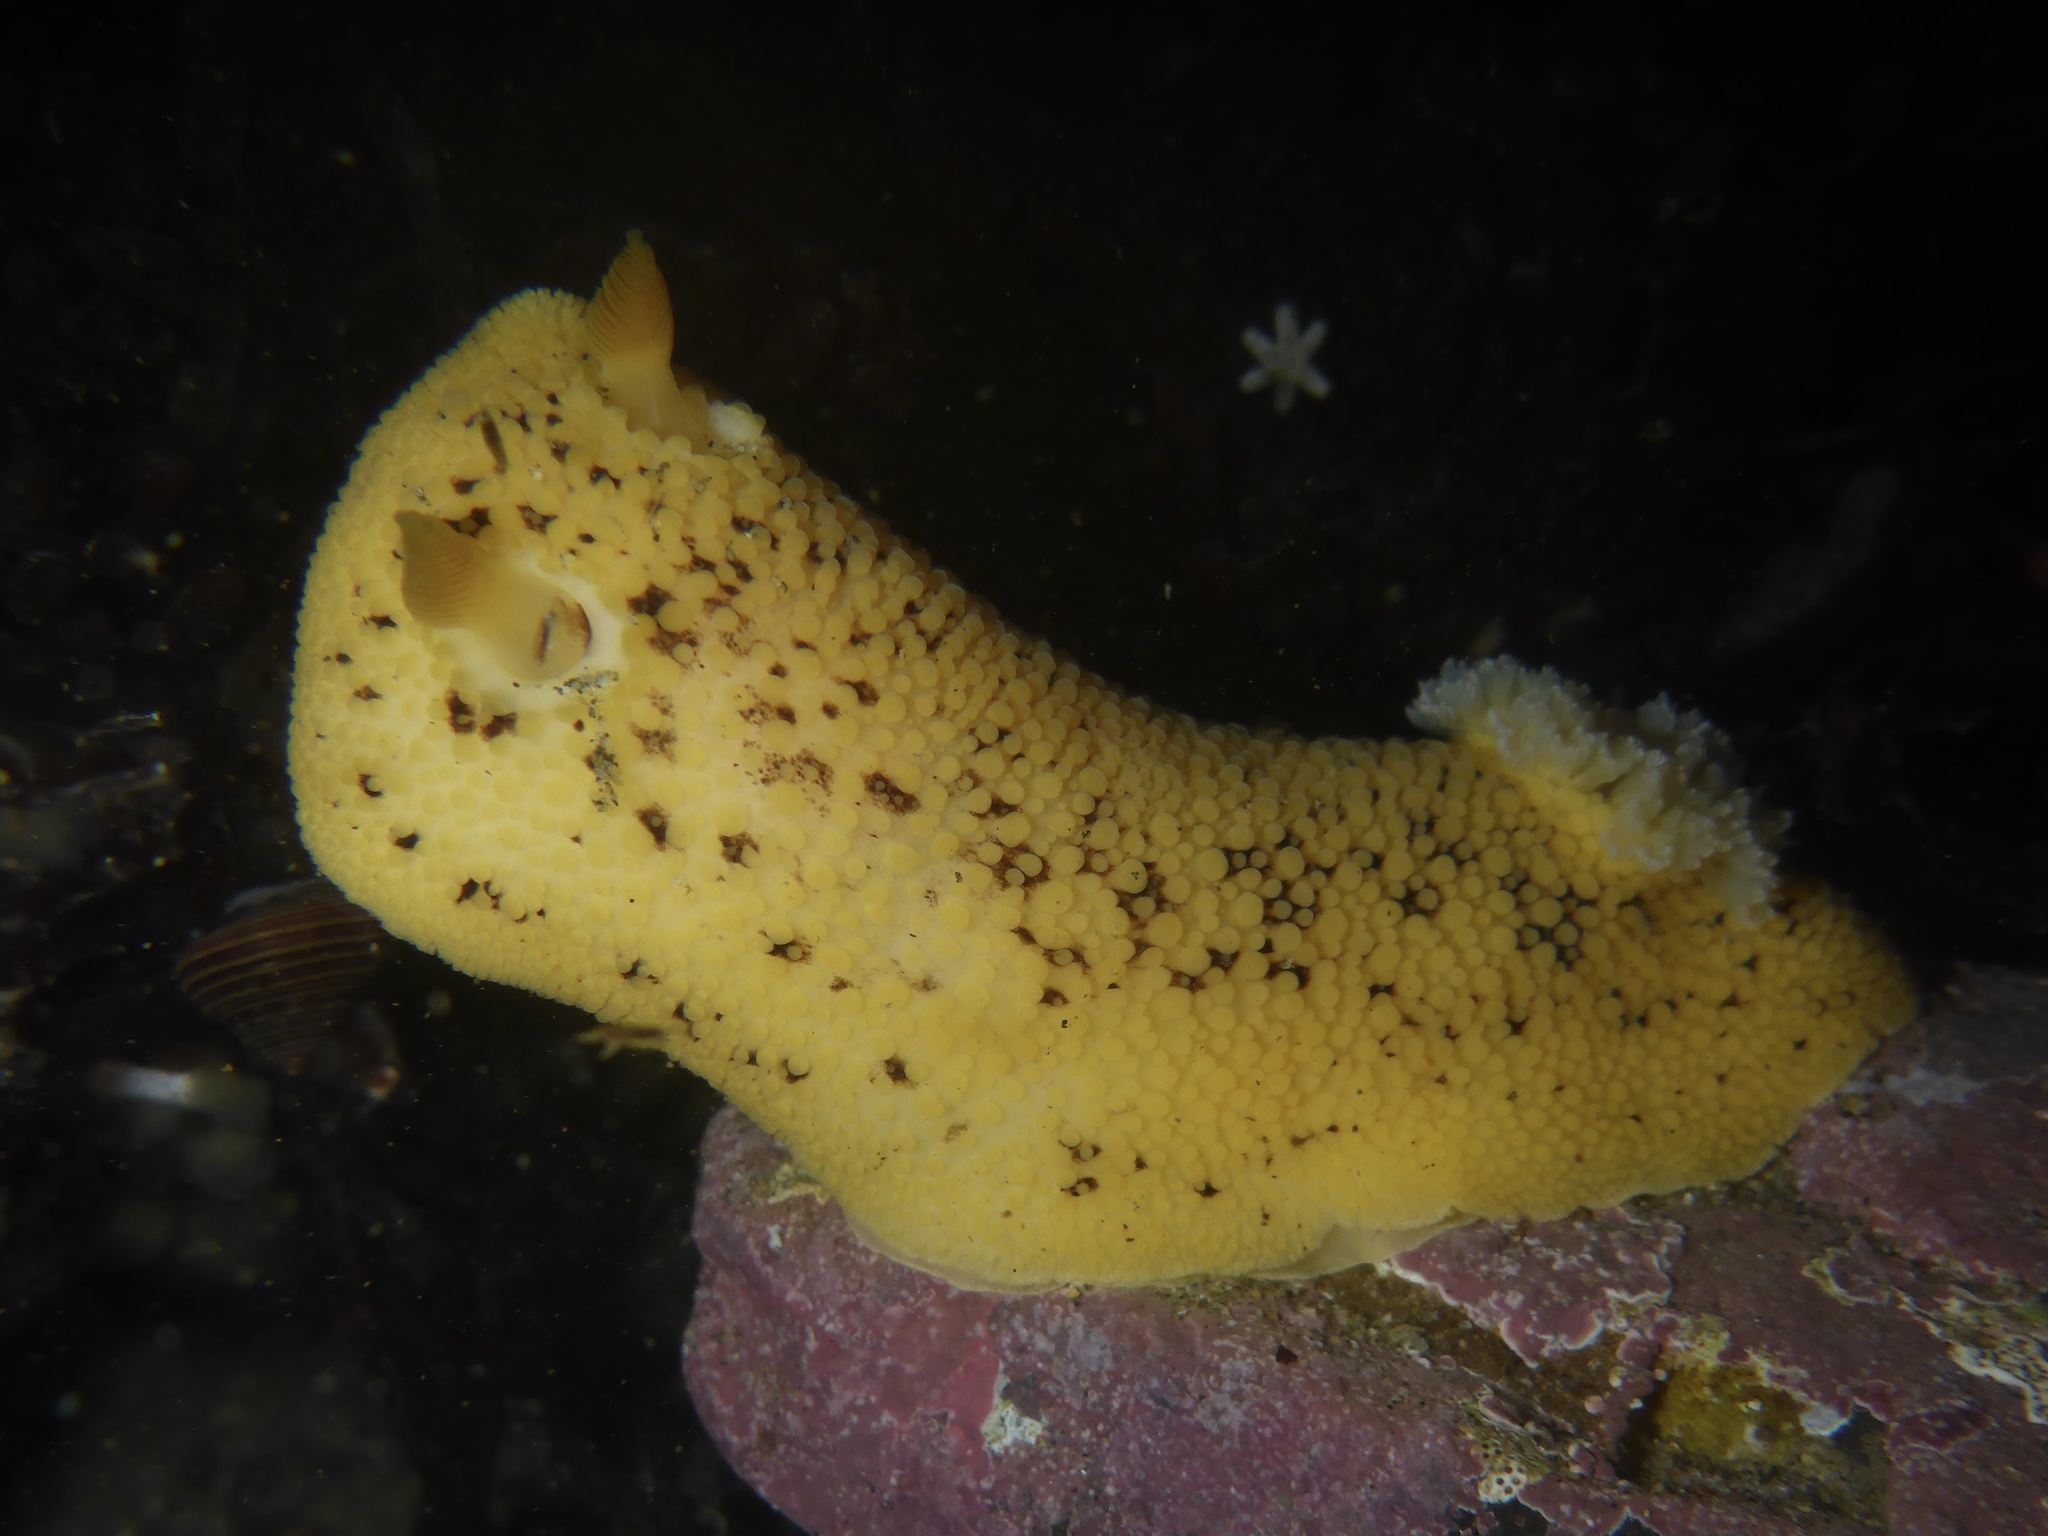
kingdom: Animalia
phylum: Mollusca
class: Gastropoda
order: Nudibranchia
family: Discodorididae
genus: Peltodoris
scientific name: Peltodoris nobilis
